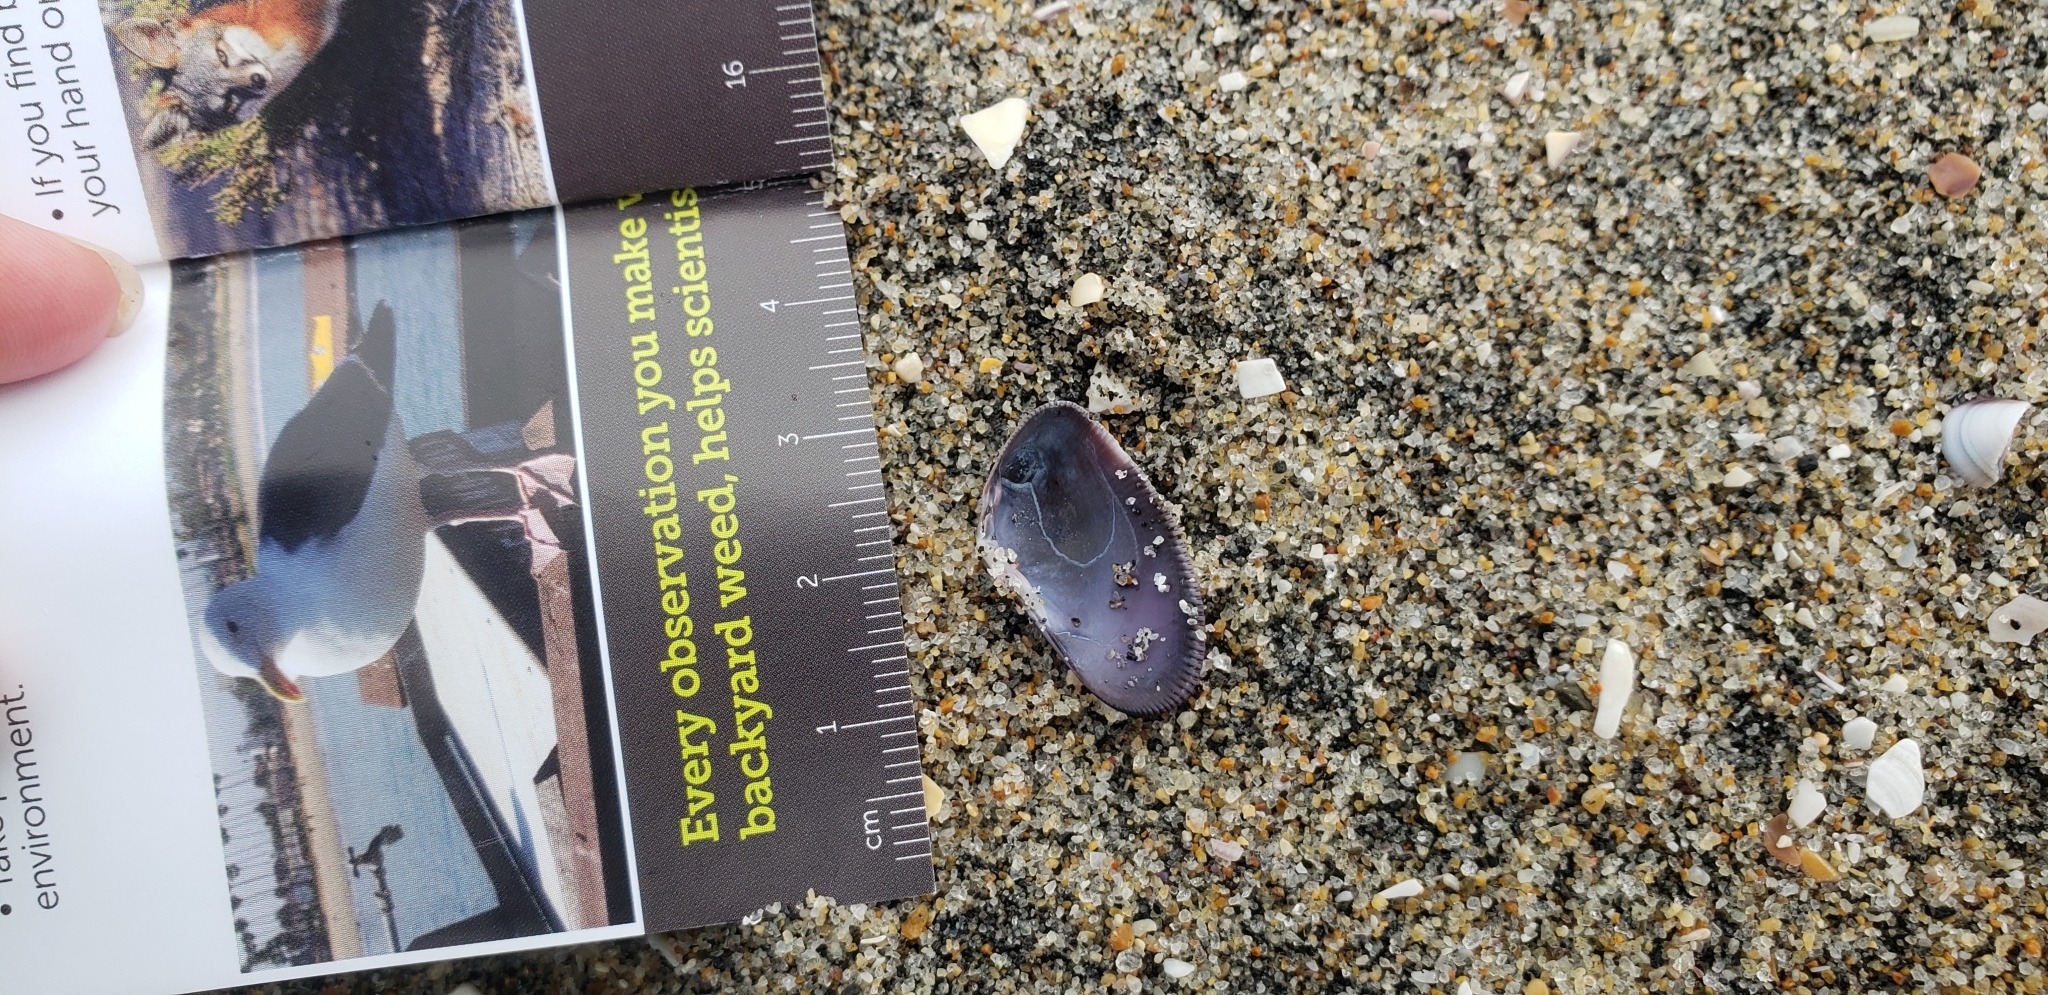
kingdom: Animalia
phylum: Mollusca
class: Bivalvia
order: Cardiida
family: Donacidae
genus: Donax
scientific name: Donax gouldii
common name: Gould beanclam
